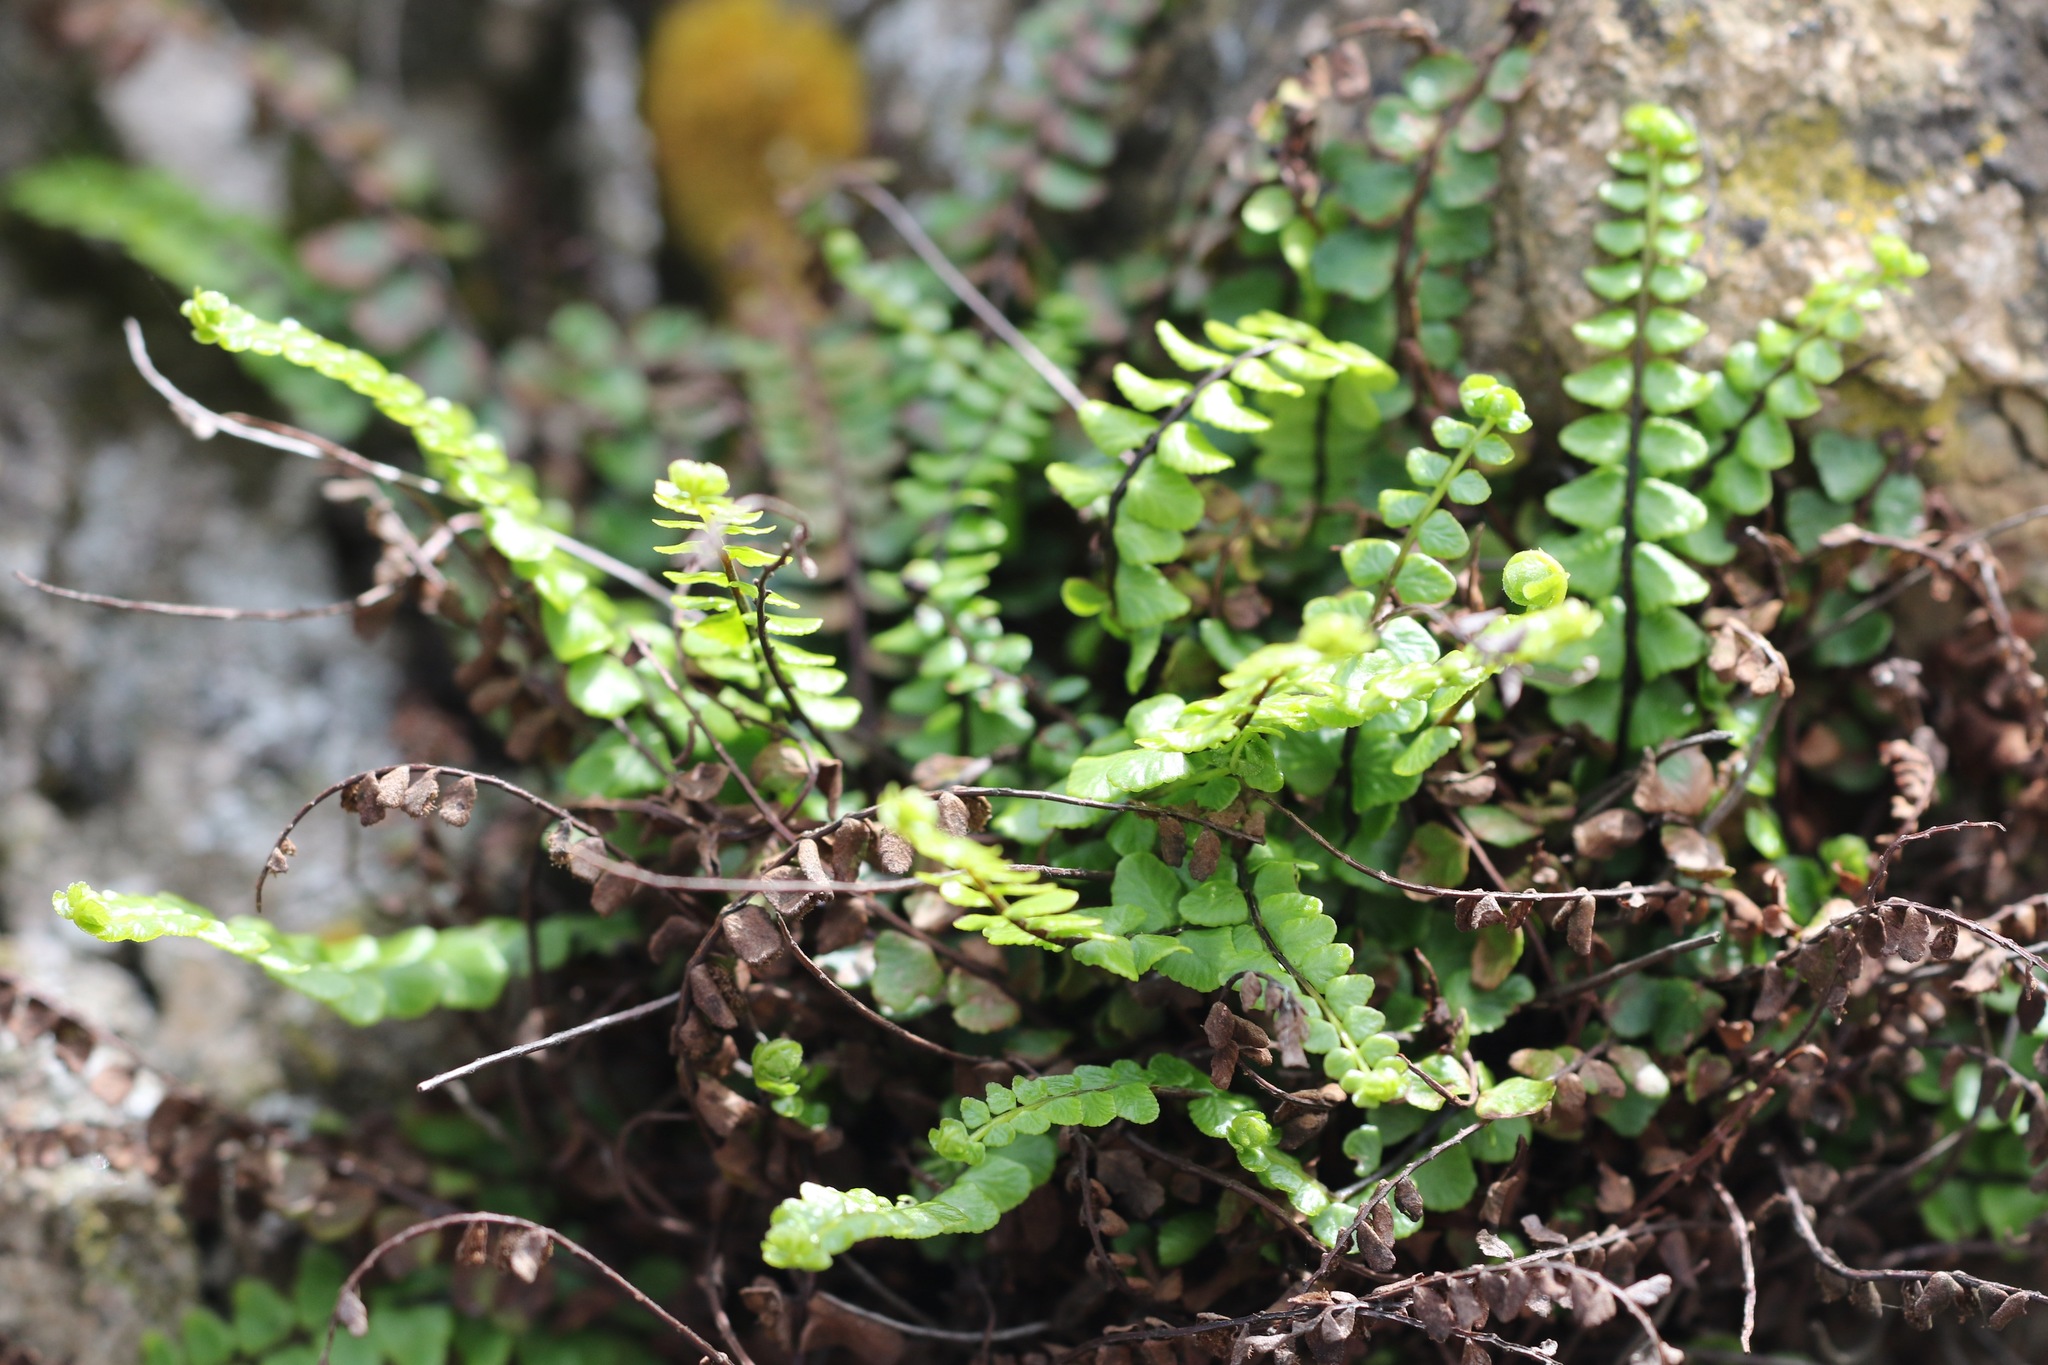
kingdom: Plantae
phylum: Tracheophyta
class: Polypodiopsida
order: Polypodiales
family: Aspleniaceae
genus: Asplenium
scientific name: Asplenium trichomanes
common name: Maidenhair spleenwort
